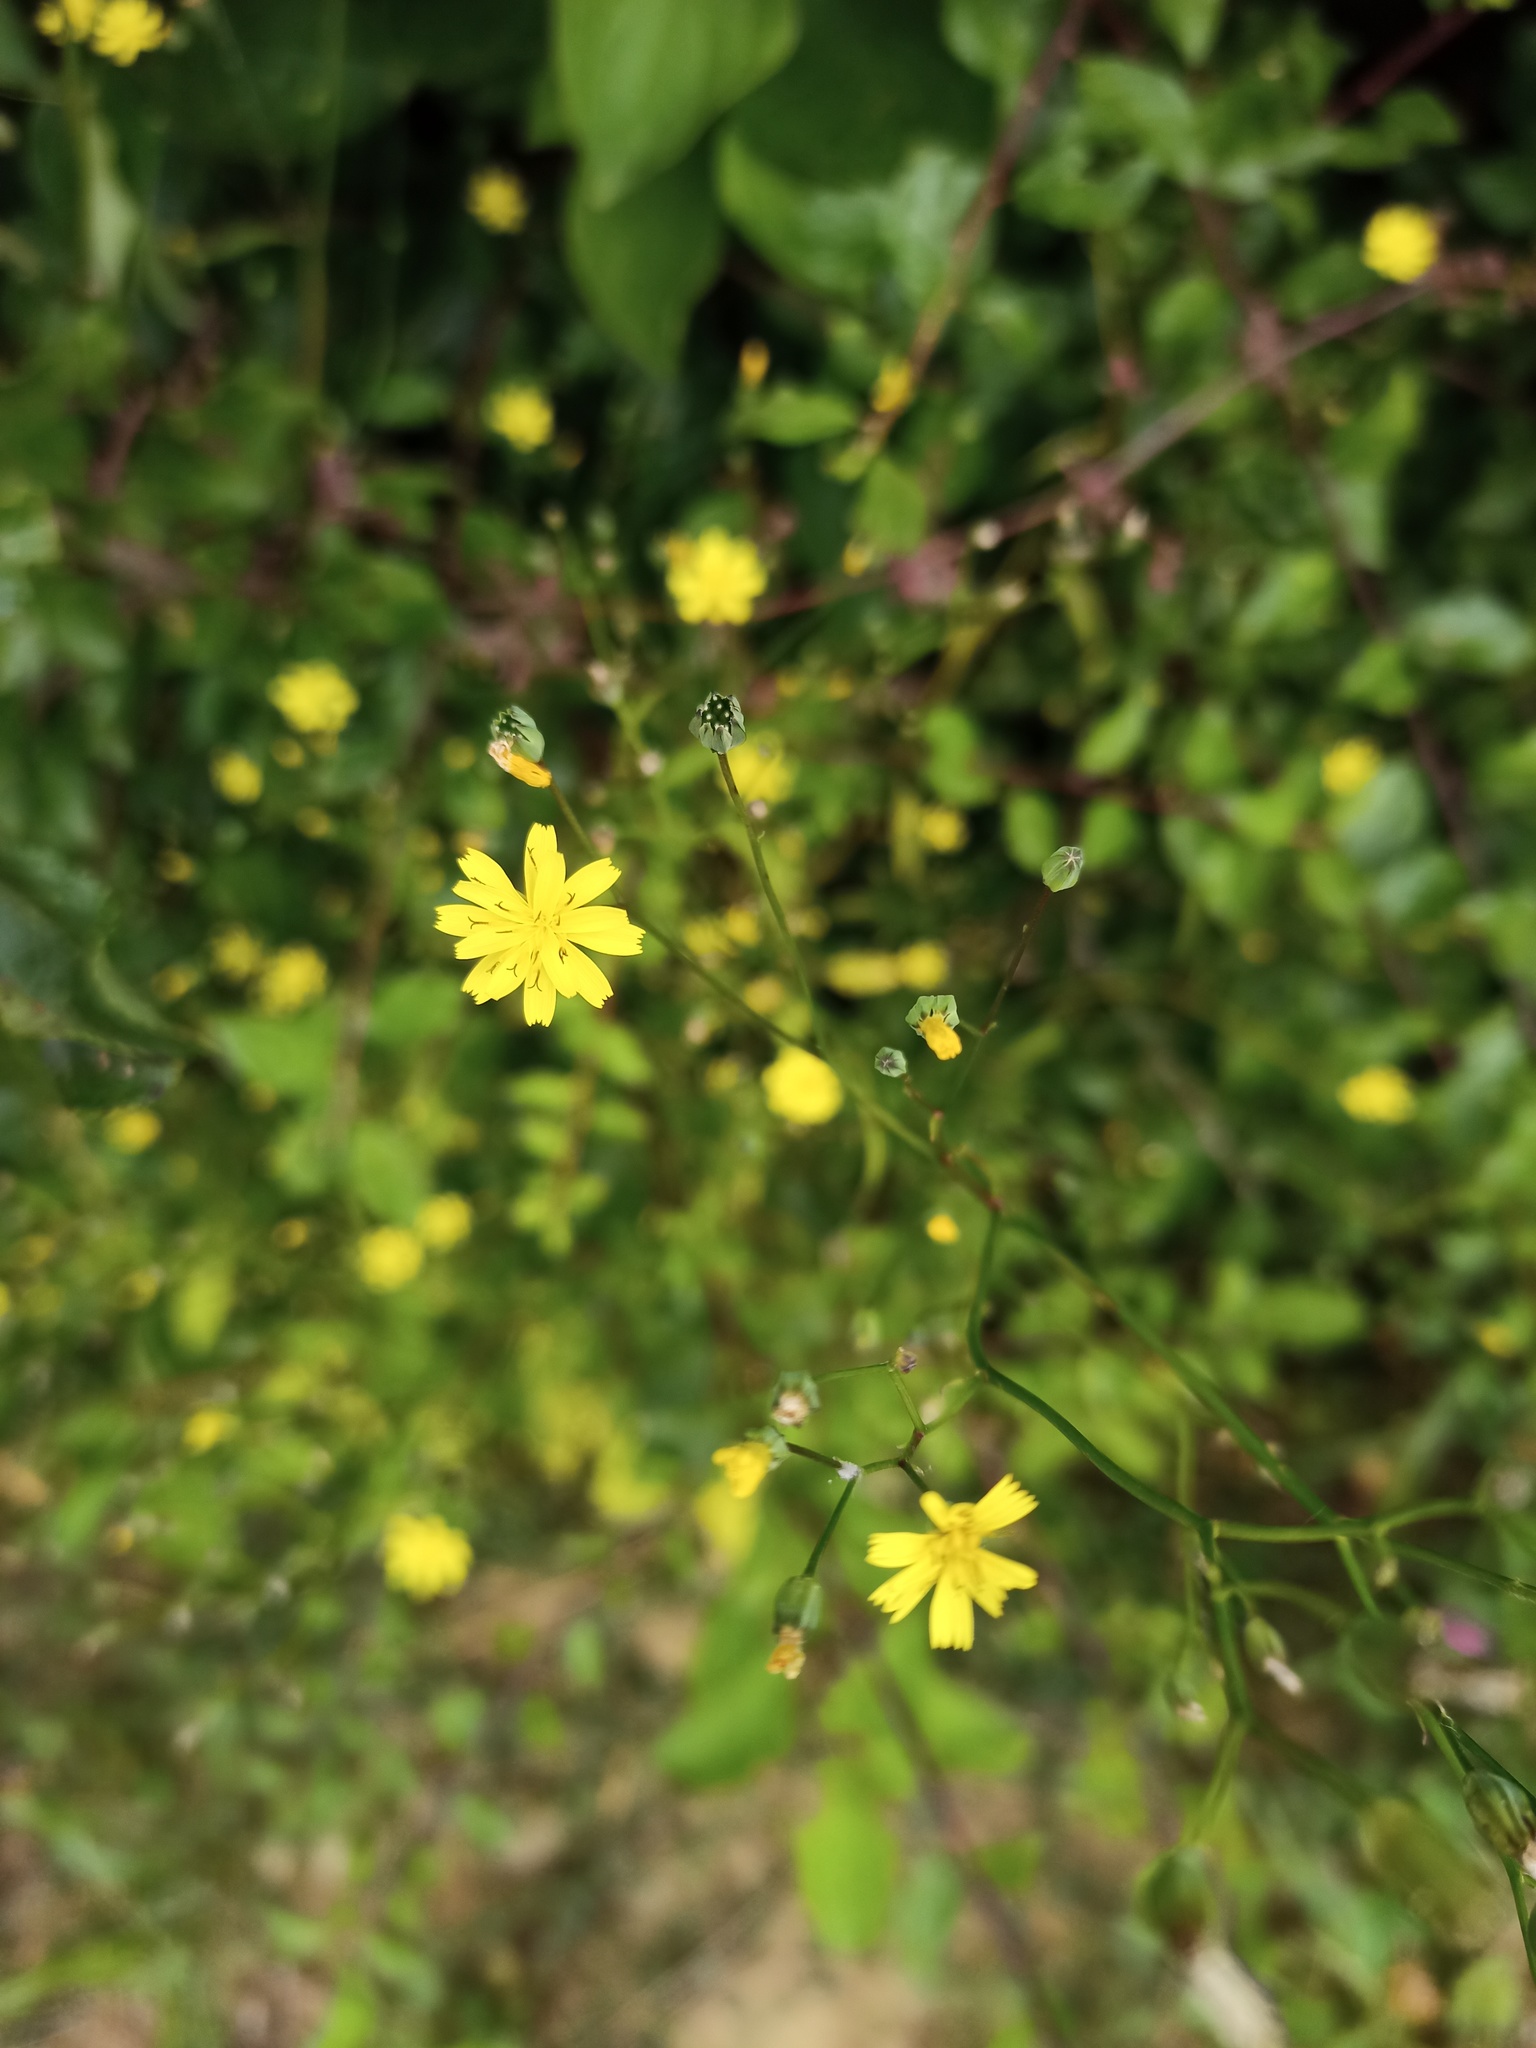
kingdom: Plantae
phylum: Tracheophyta
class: Magnoliopsida
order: Asterales
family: Asteraceae
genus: Lapsana
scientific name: Lapsana communis
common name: Nipplewort
